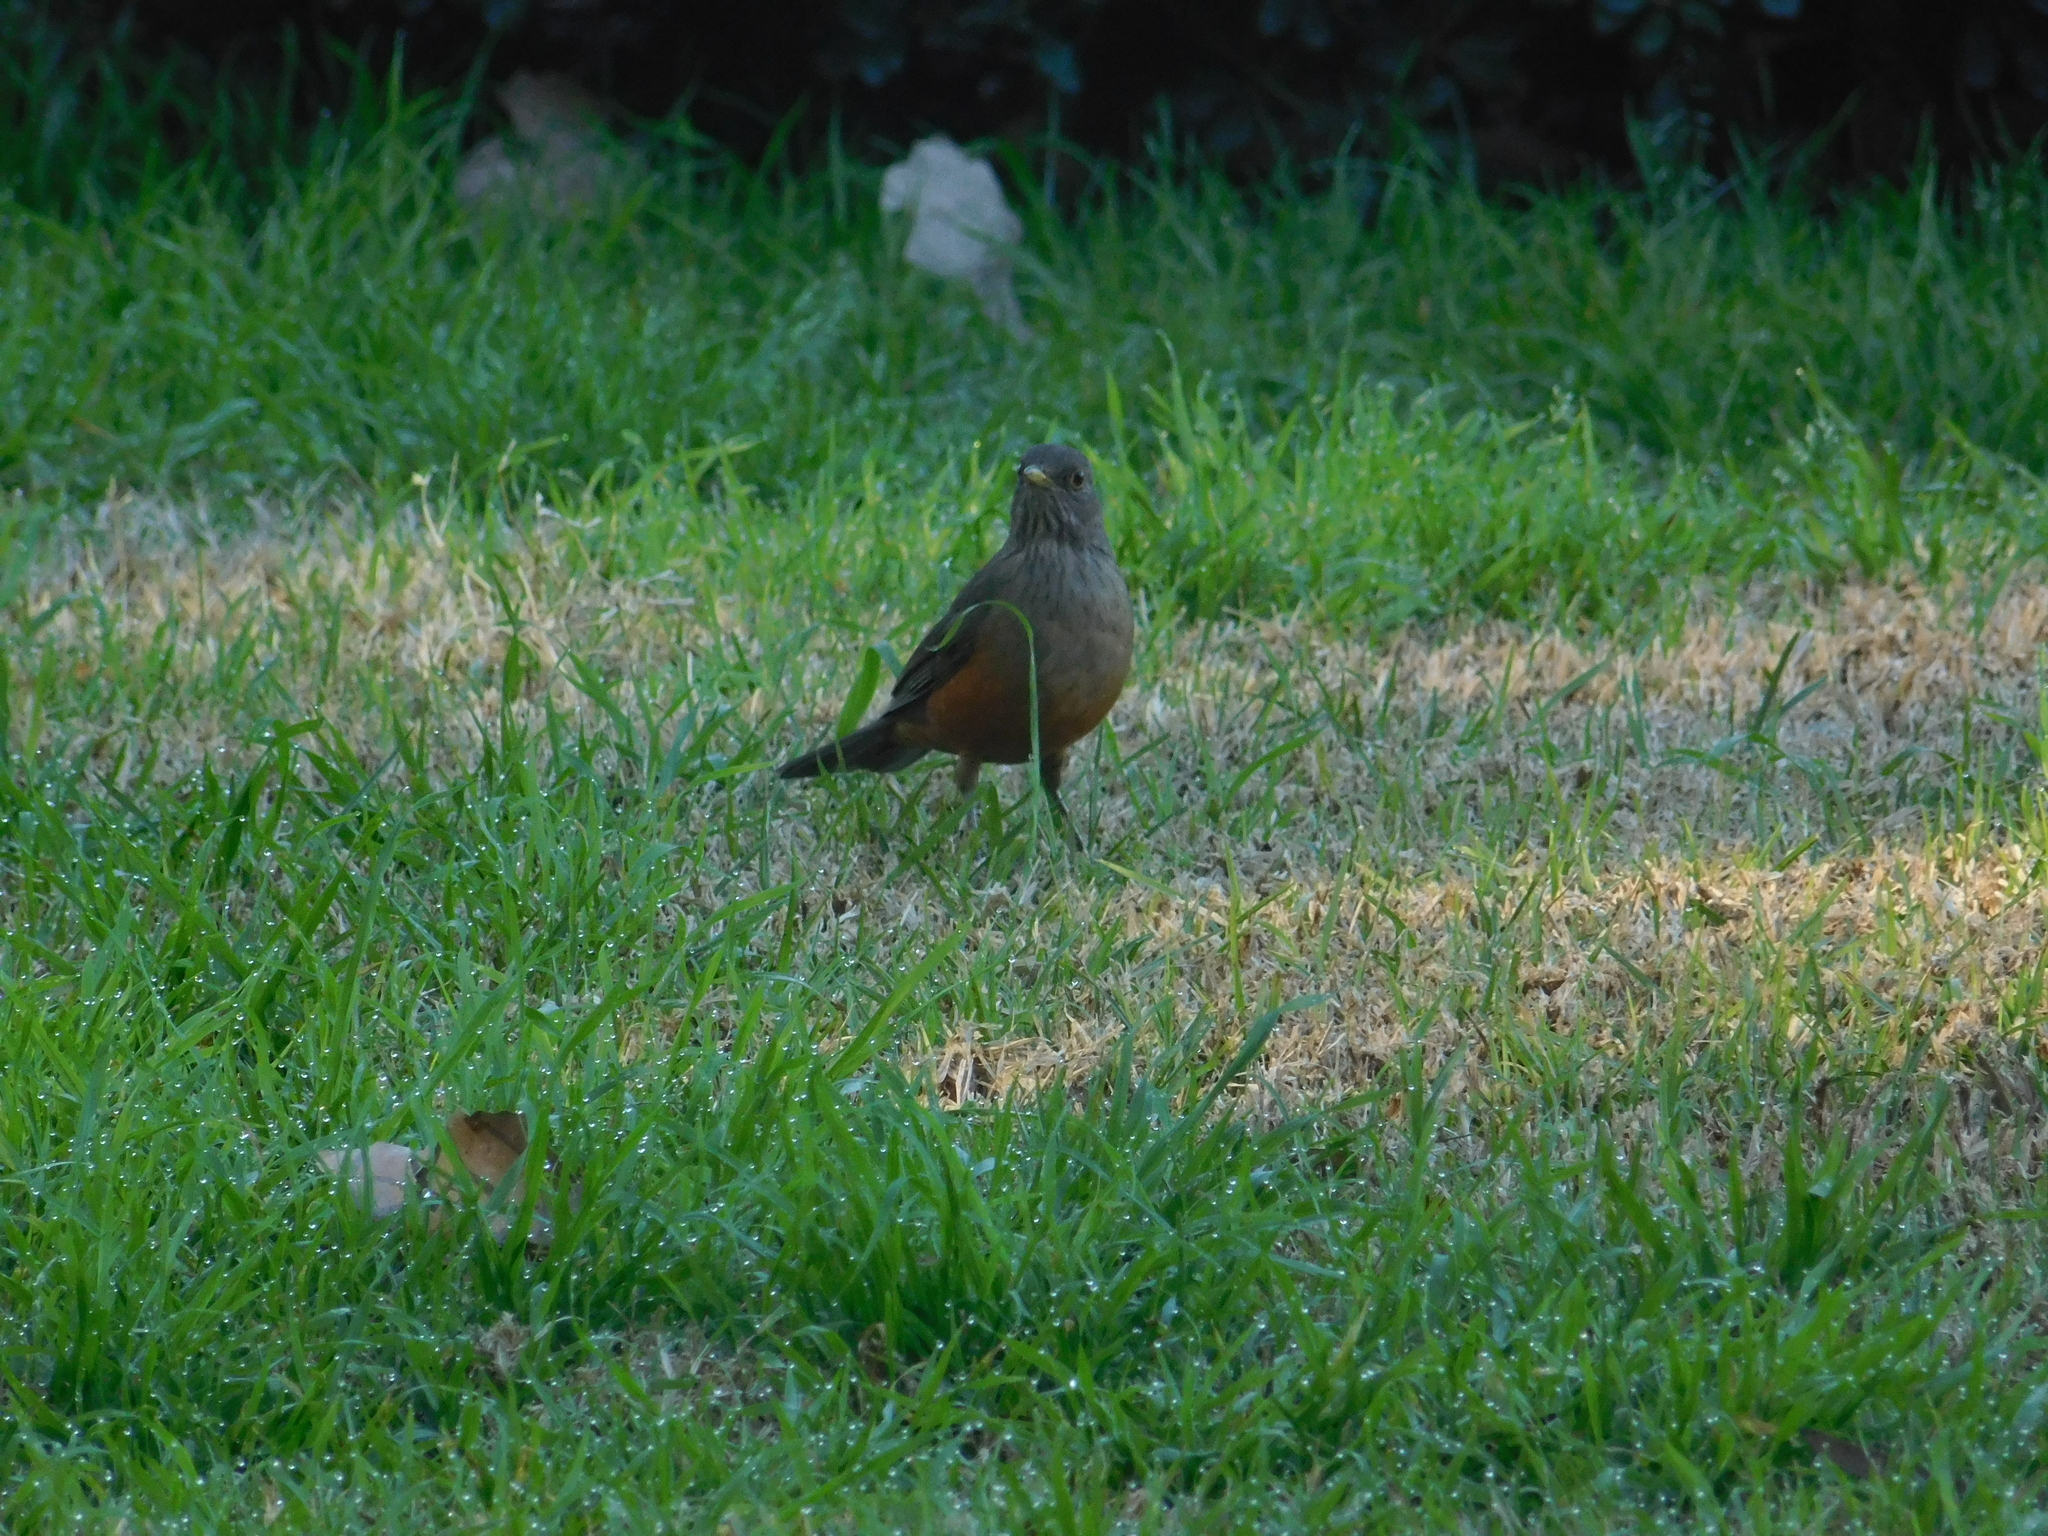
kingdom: Animalia
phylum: Chordata
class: Aves
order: Passeriformes
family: Turdidae
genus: Turdus
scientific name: Turdus rufiventris
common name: Rufous-bellied thrush
